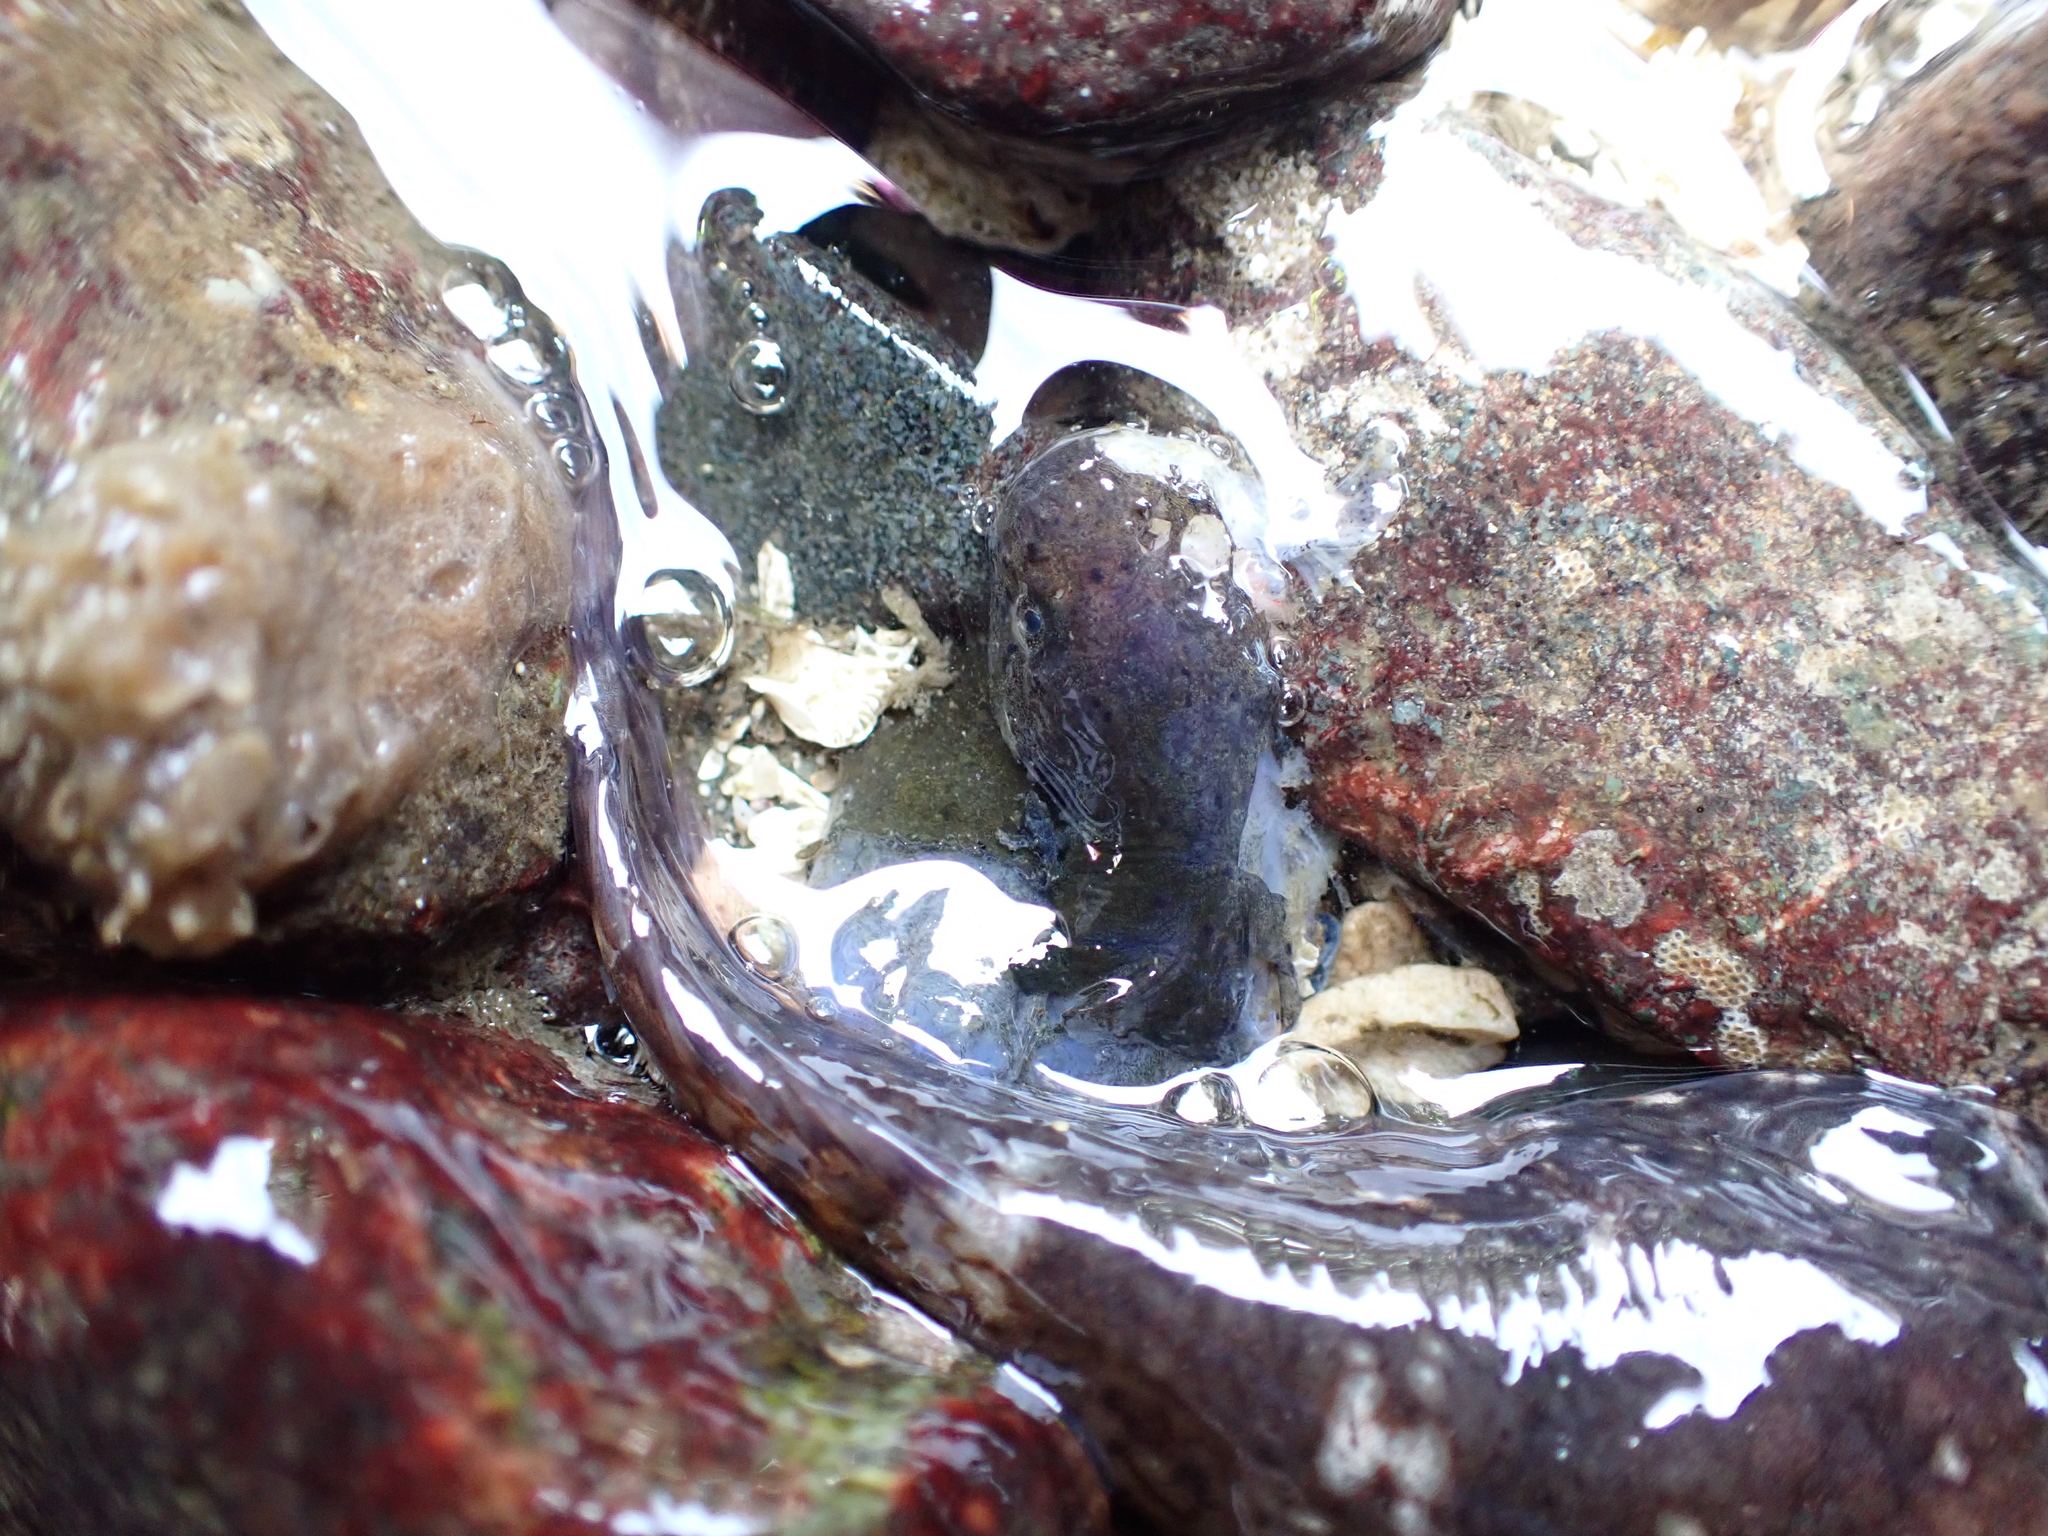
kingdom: Animalia
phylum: Chordata
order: Gobiesociformes
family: Gobiesocidae
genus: Gobiesox
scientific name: Gobiesox maeandricus
